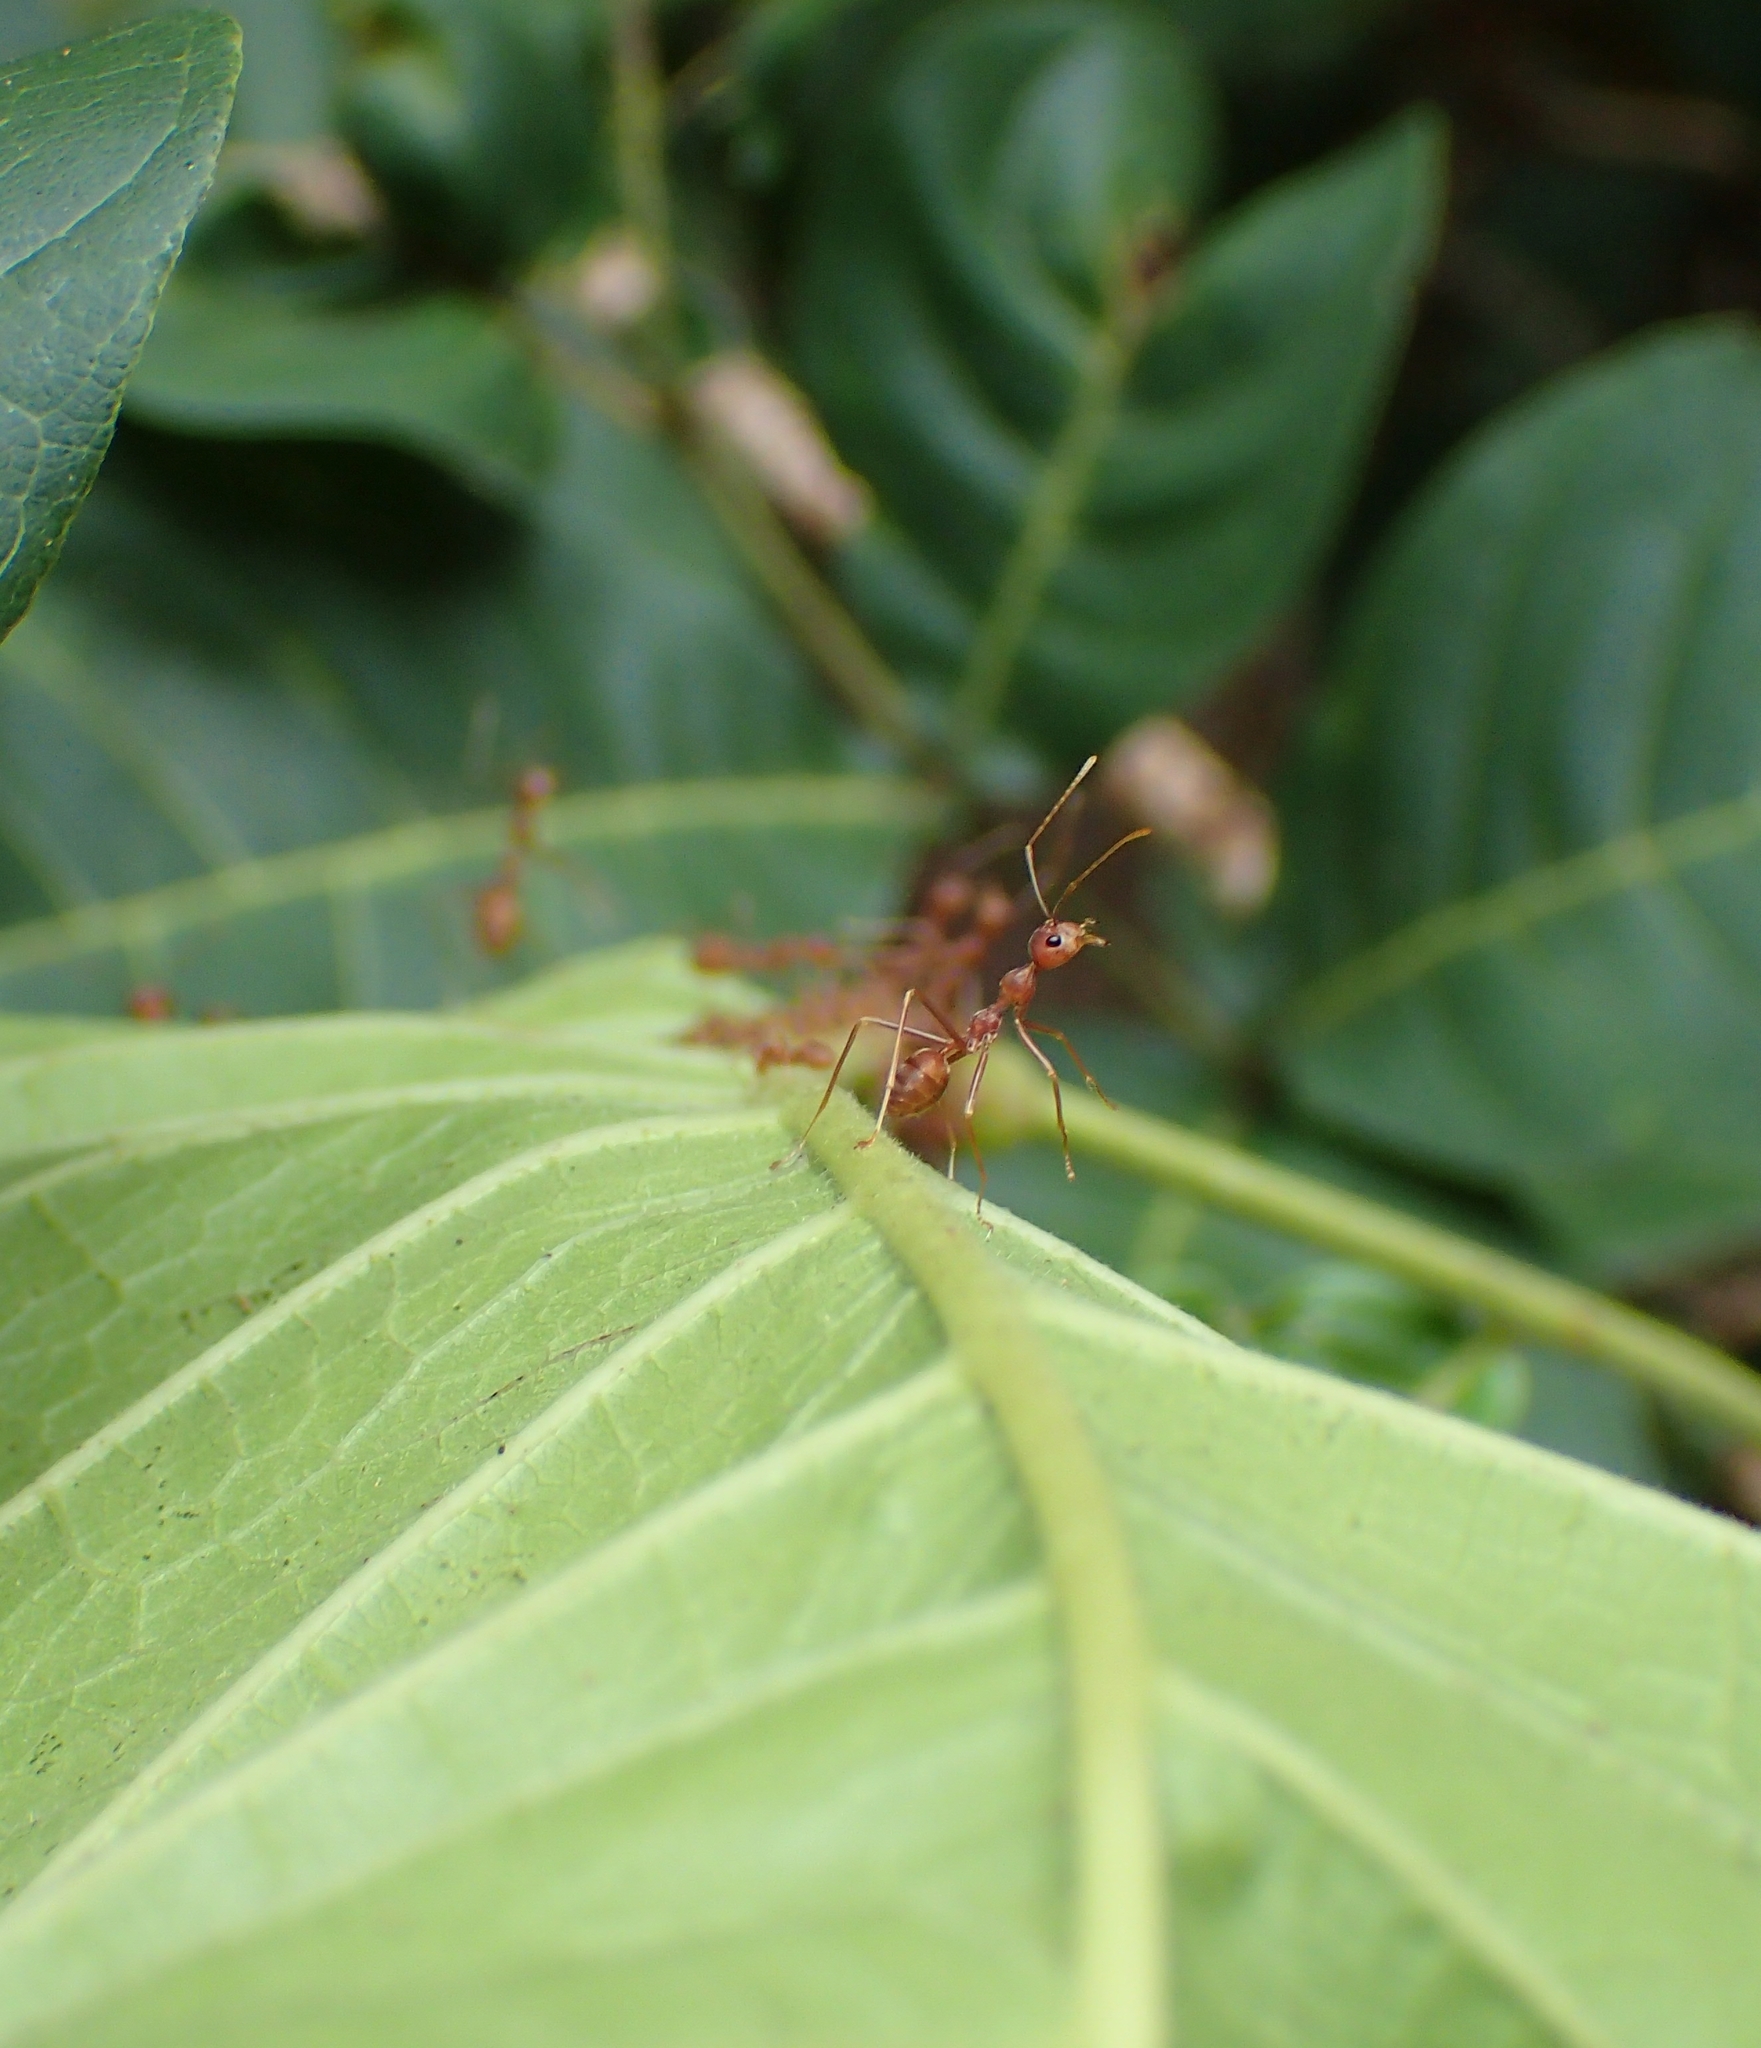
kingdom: Animalia
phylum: Arthropoda
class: Insecta
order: Hymenoptera
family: Formicidae
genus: Oecophylla
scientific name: Oecophylla smaragdina
